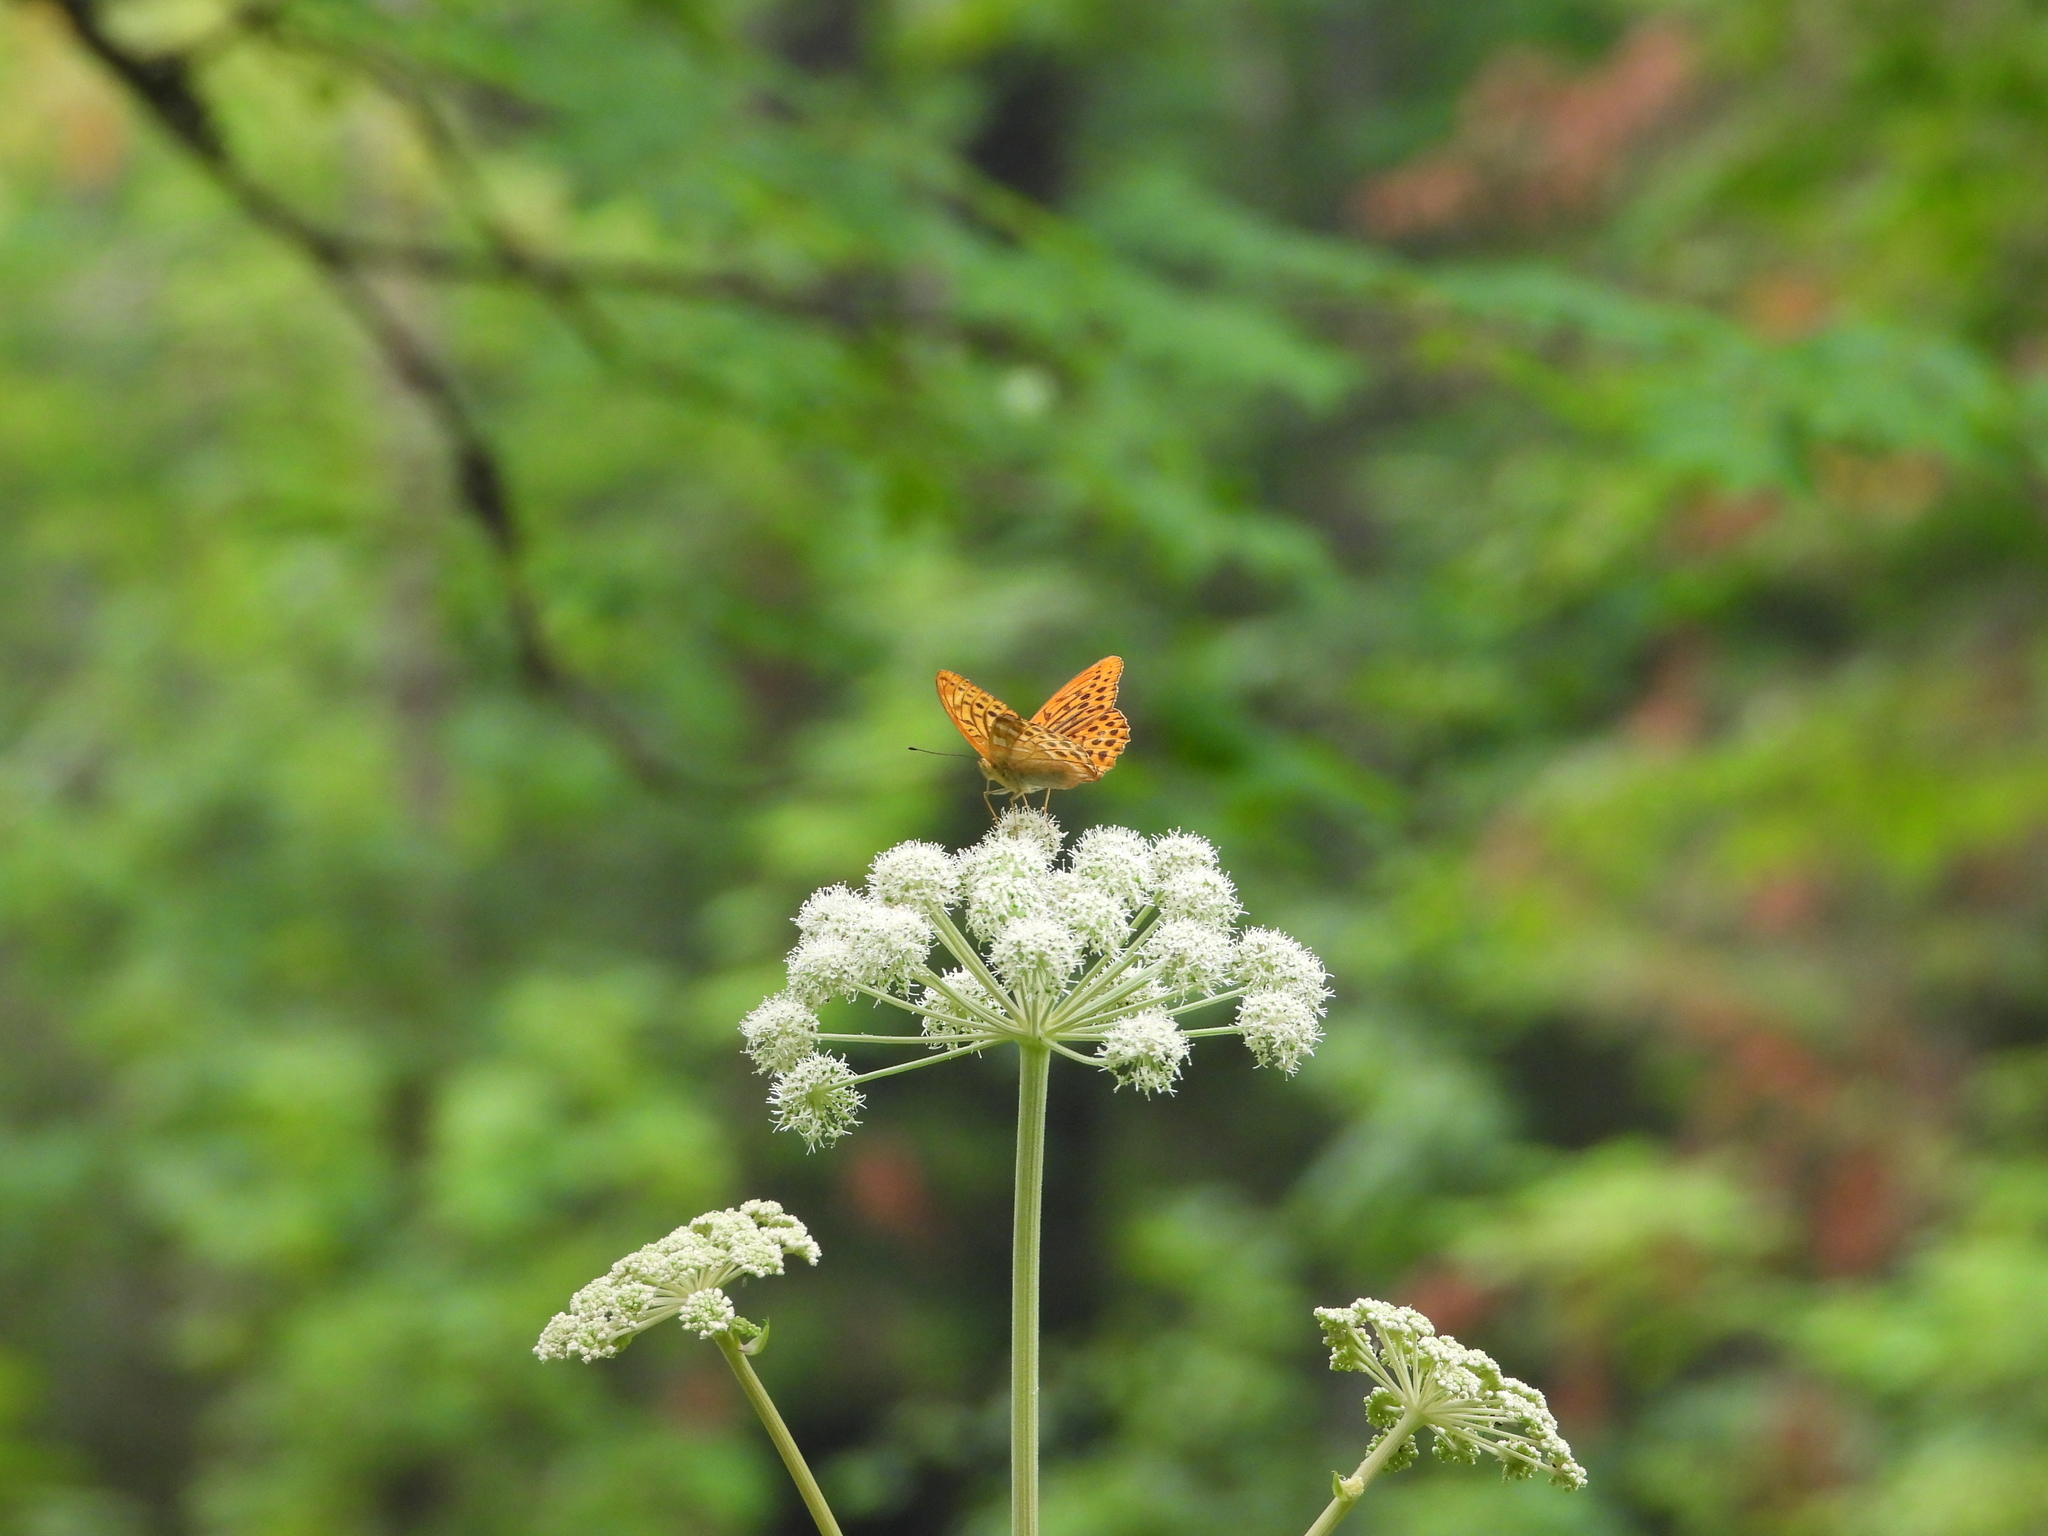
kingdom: Animalia
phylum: Arthropoda
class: Insecta
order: Lepidoptera
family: Nymphalidae
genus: Argynnis
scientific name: Argynnis paphia
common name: Silver-washed fritillary
